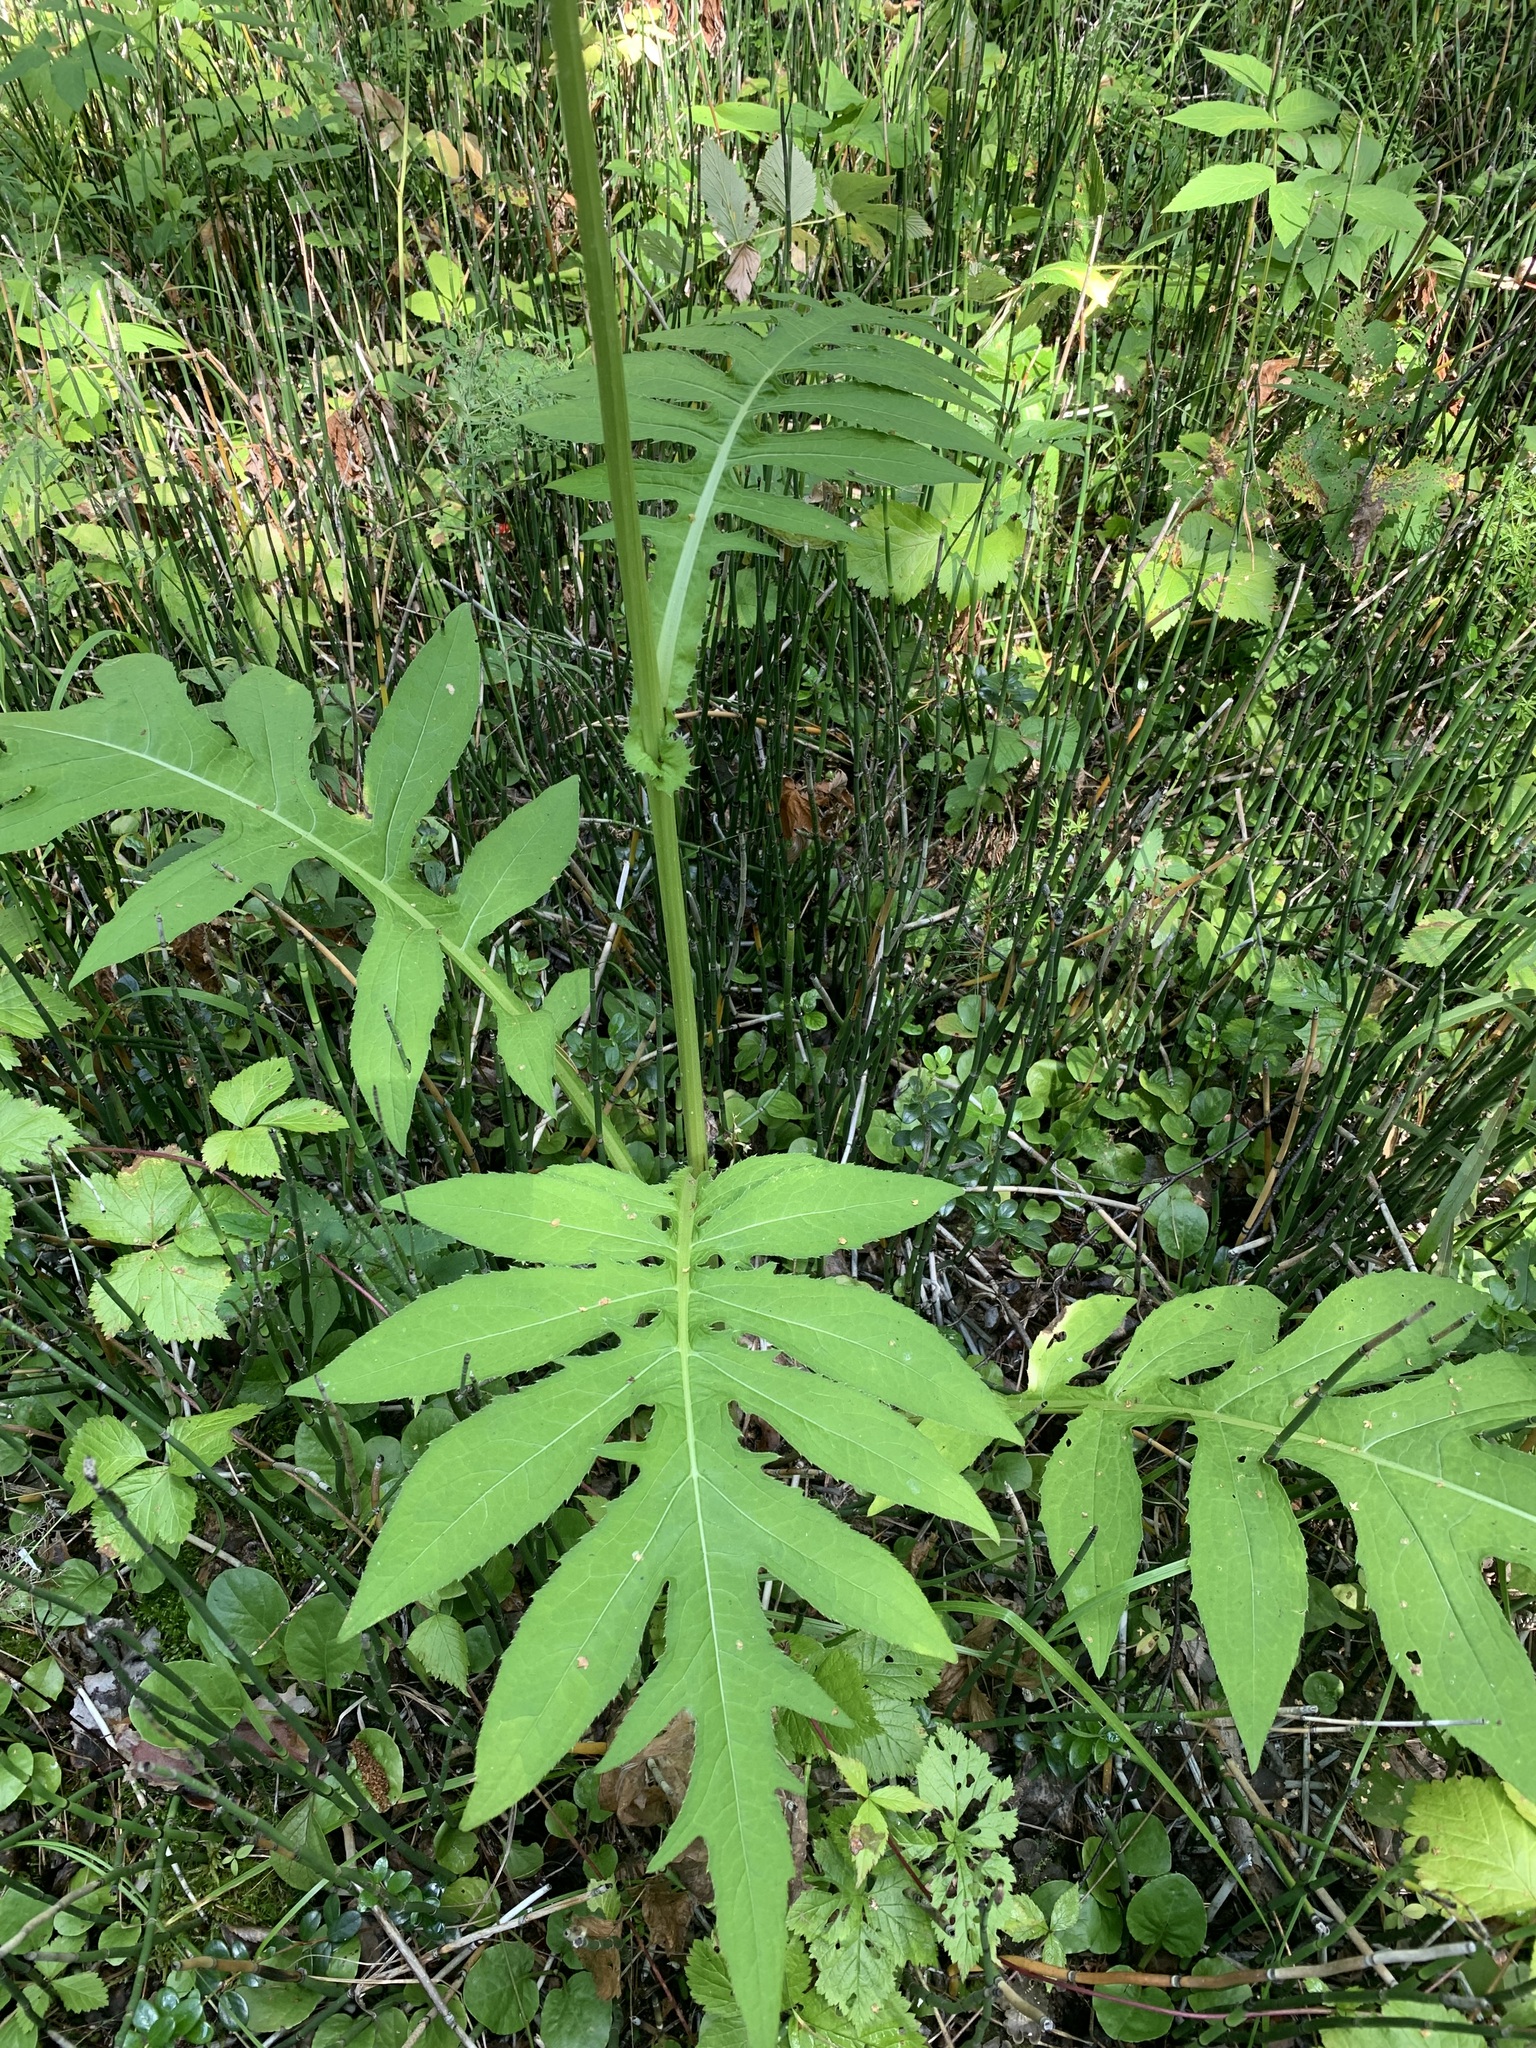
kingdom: Plantae
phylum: Tracheophyta
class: Magnoliopsida
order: Asterales
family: Asteraceae
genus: Cirsium
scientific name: Cirsium oleraceum
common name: Cabbage thistle
